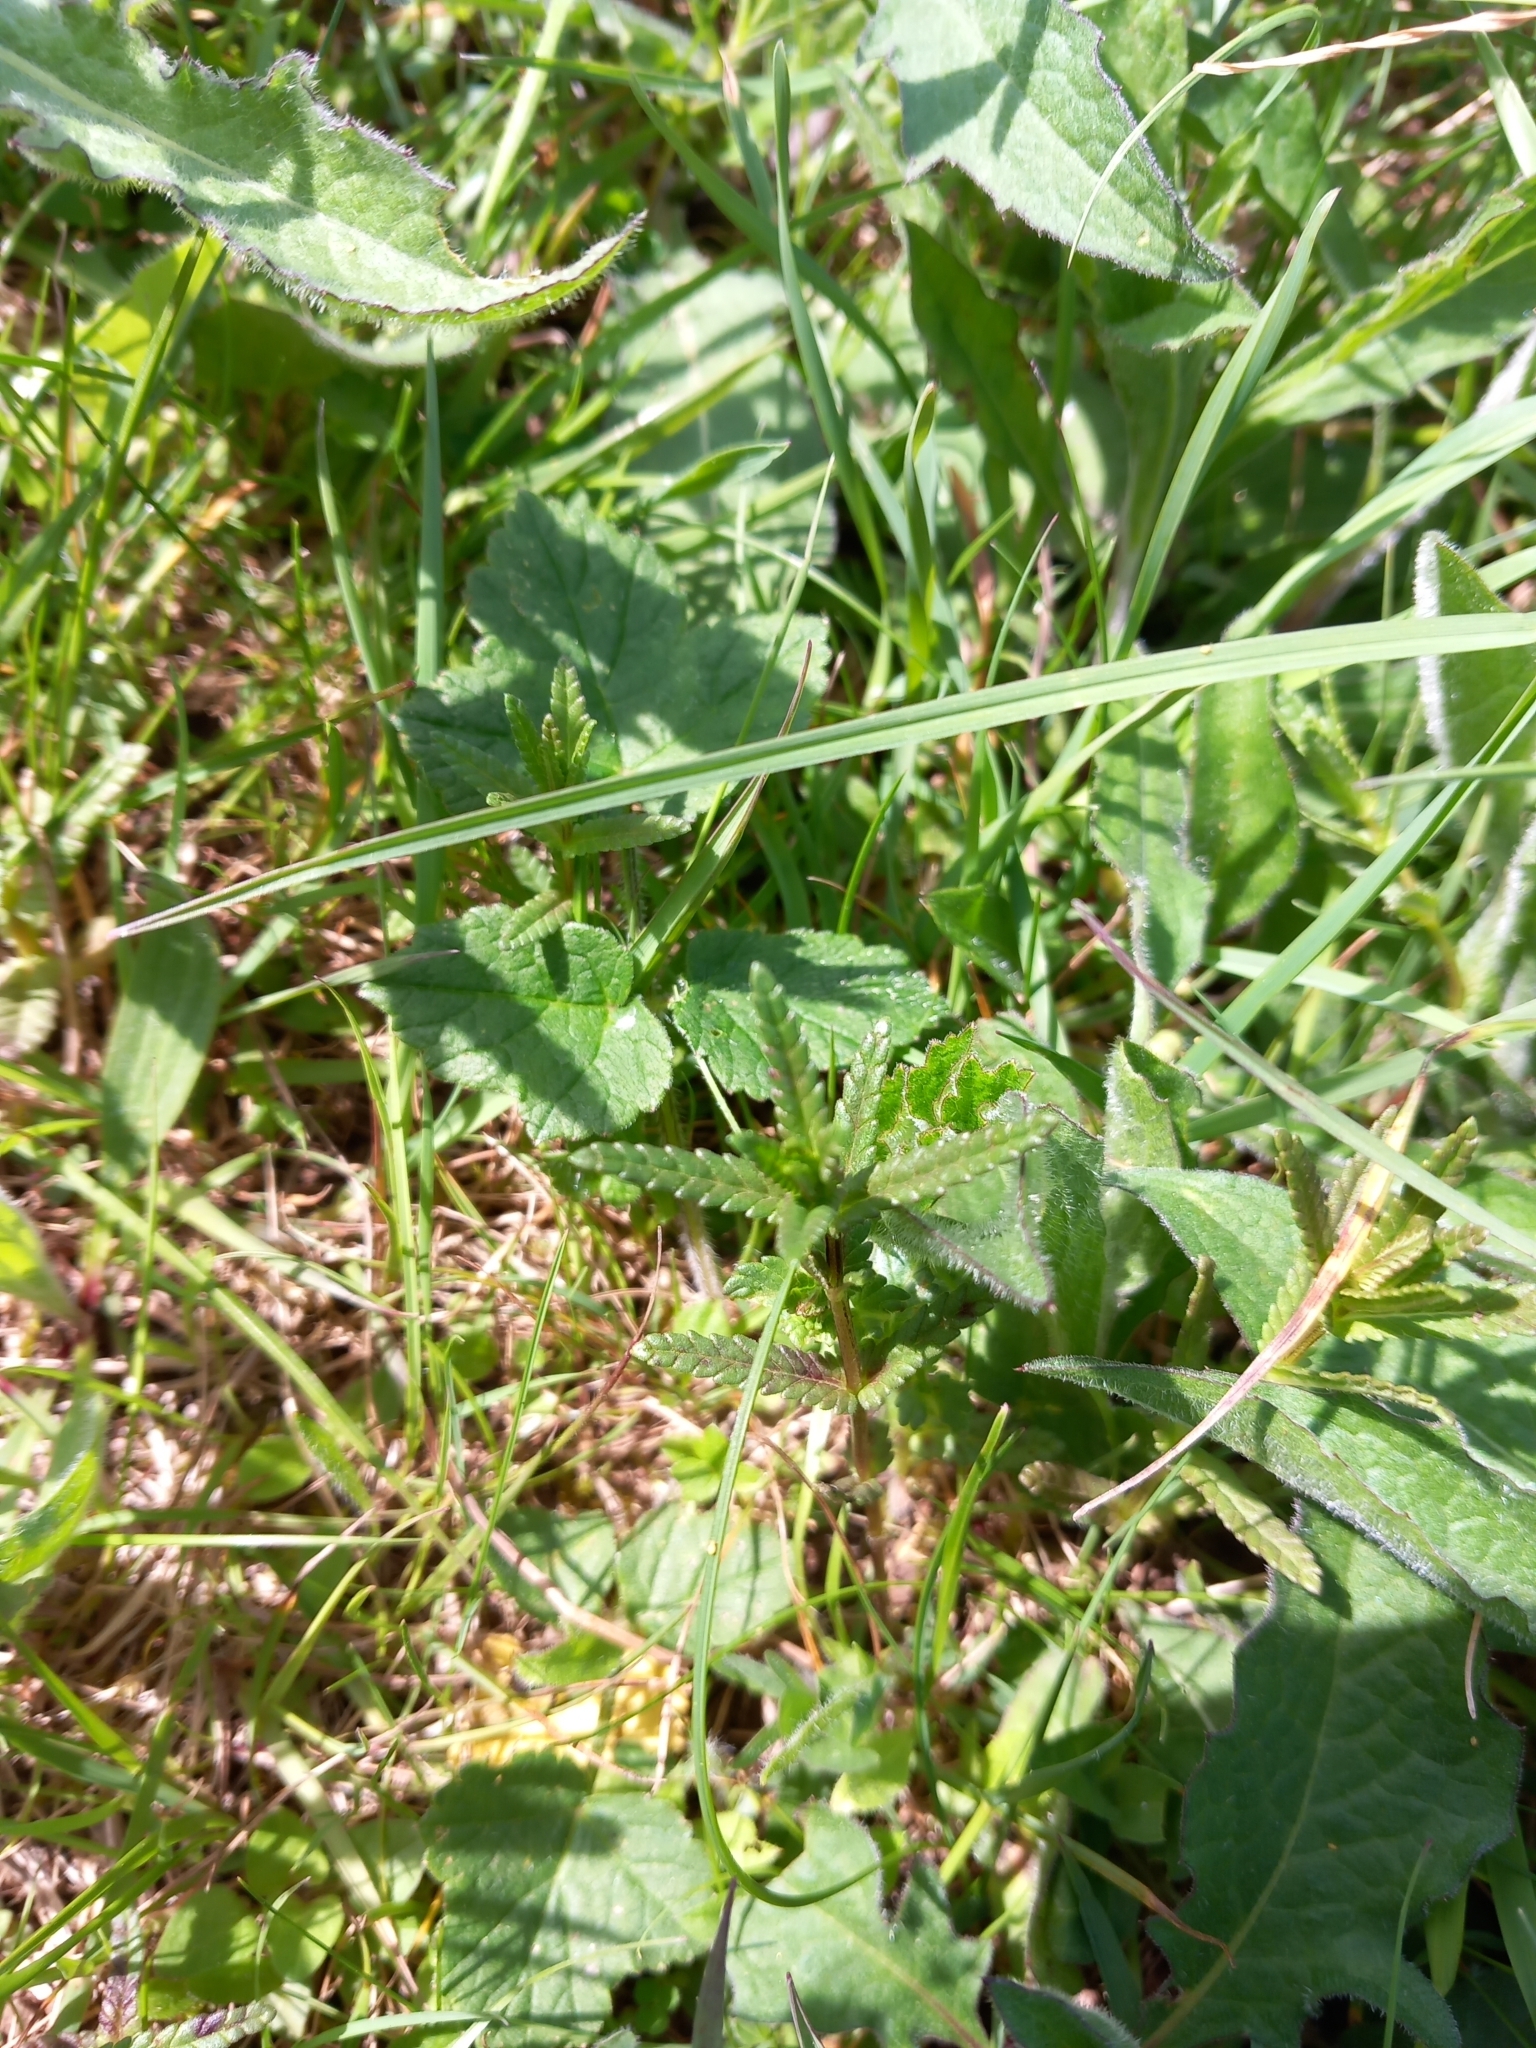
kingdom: Plantae
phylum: Tracheophyta
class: Magnoliopsida
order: Lamiales
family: Orobanchaceae
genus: Rhinanthus
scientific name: Rhinanthus minor
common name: Yellow-rattle
